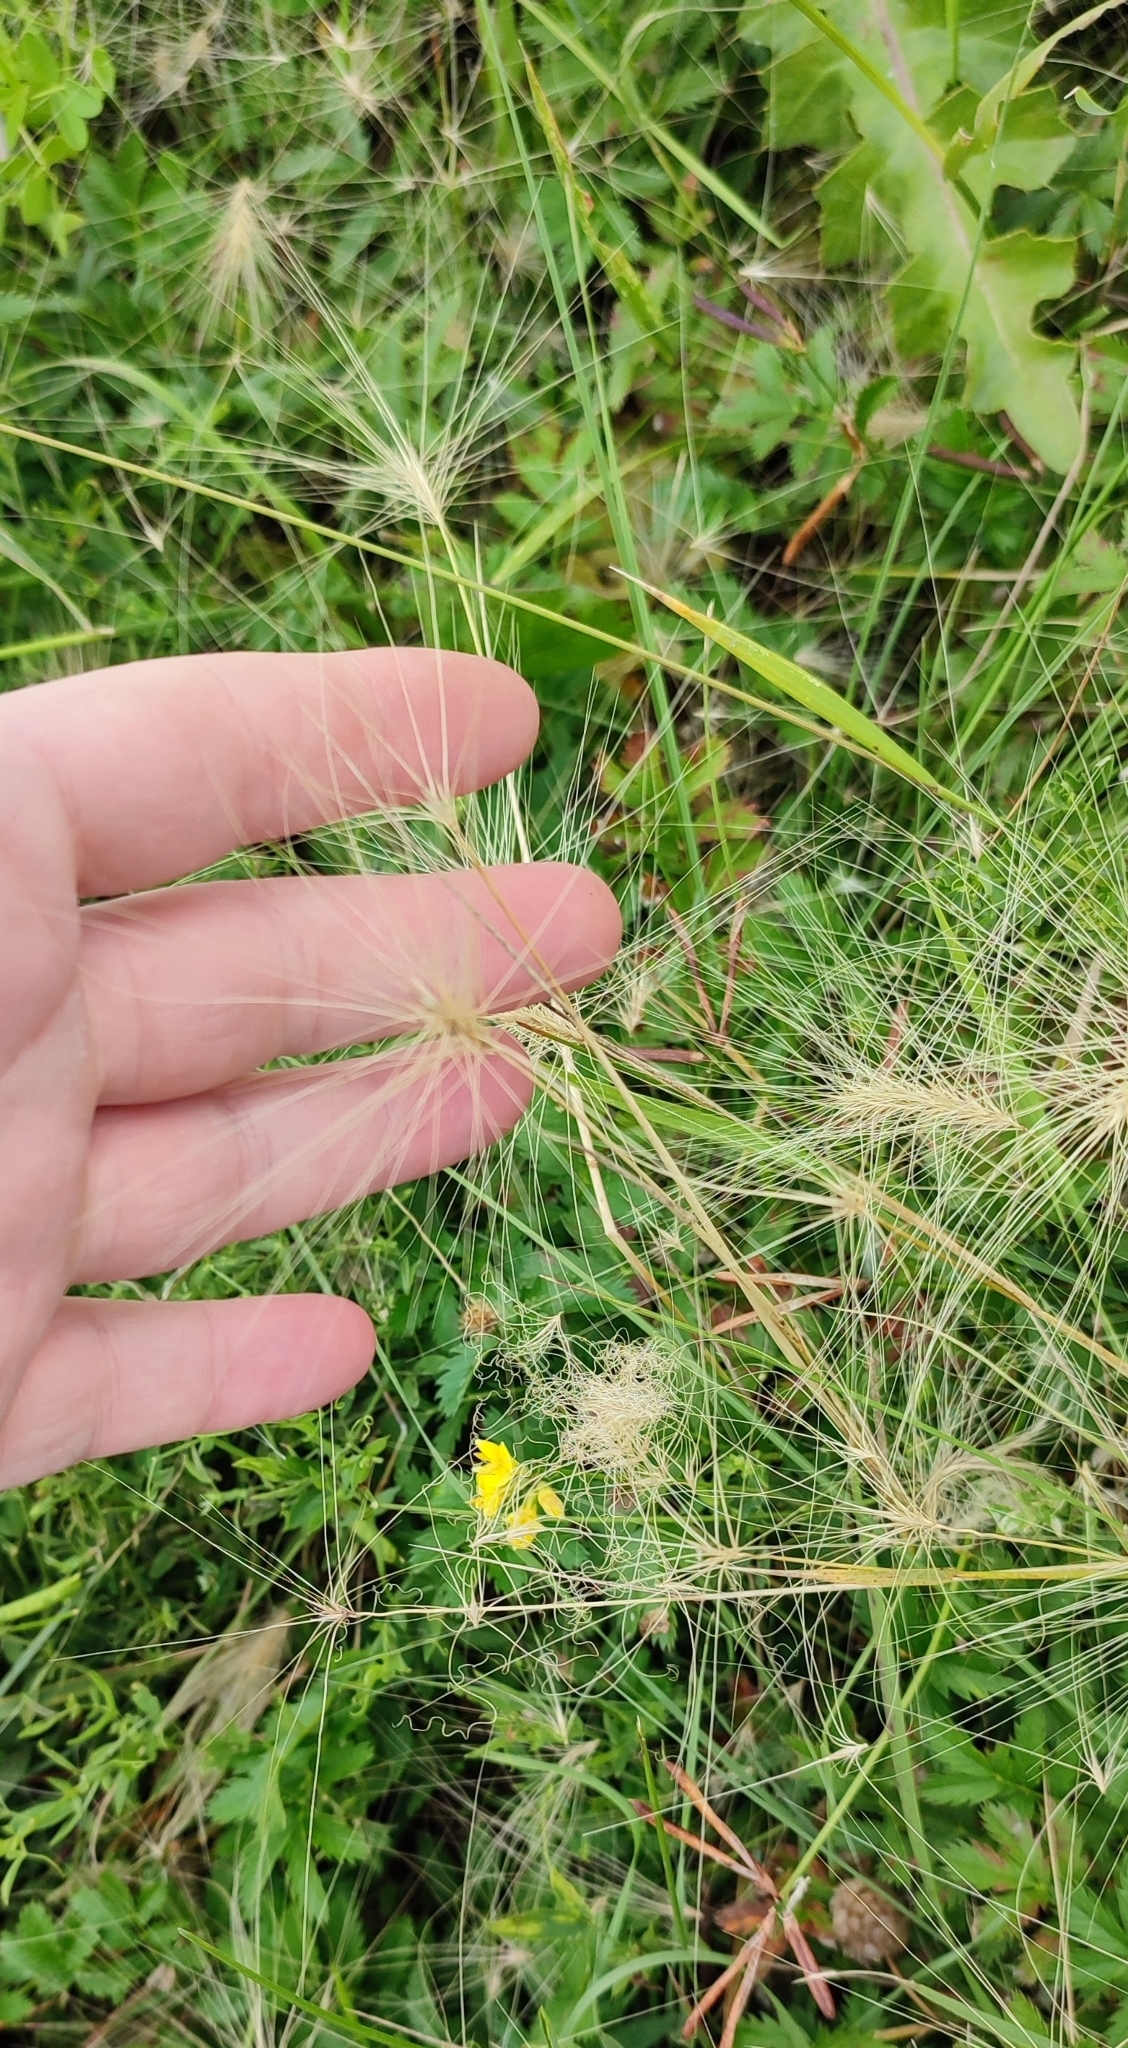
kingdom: Plantae
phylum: Tracheophyta
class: Liliopsida
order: Poales
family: Poaceae
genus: Hordeum
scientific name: Hordeum jubatum
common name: Foxtail barley
